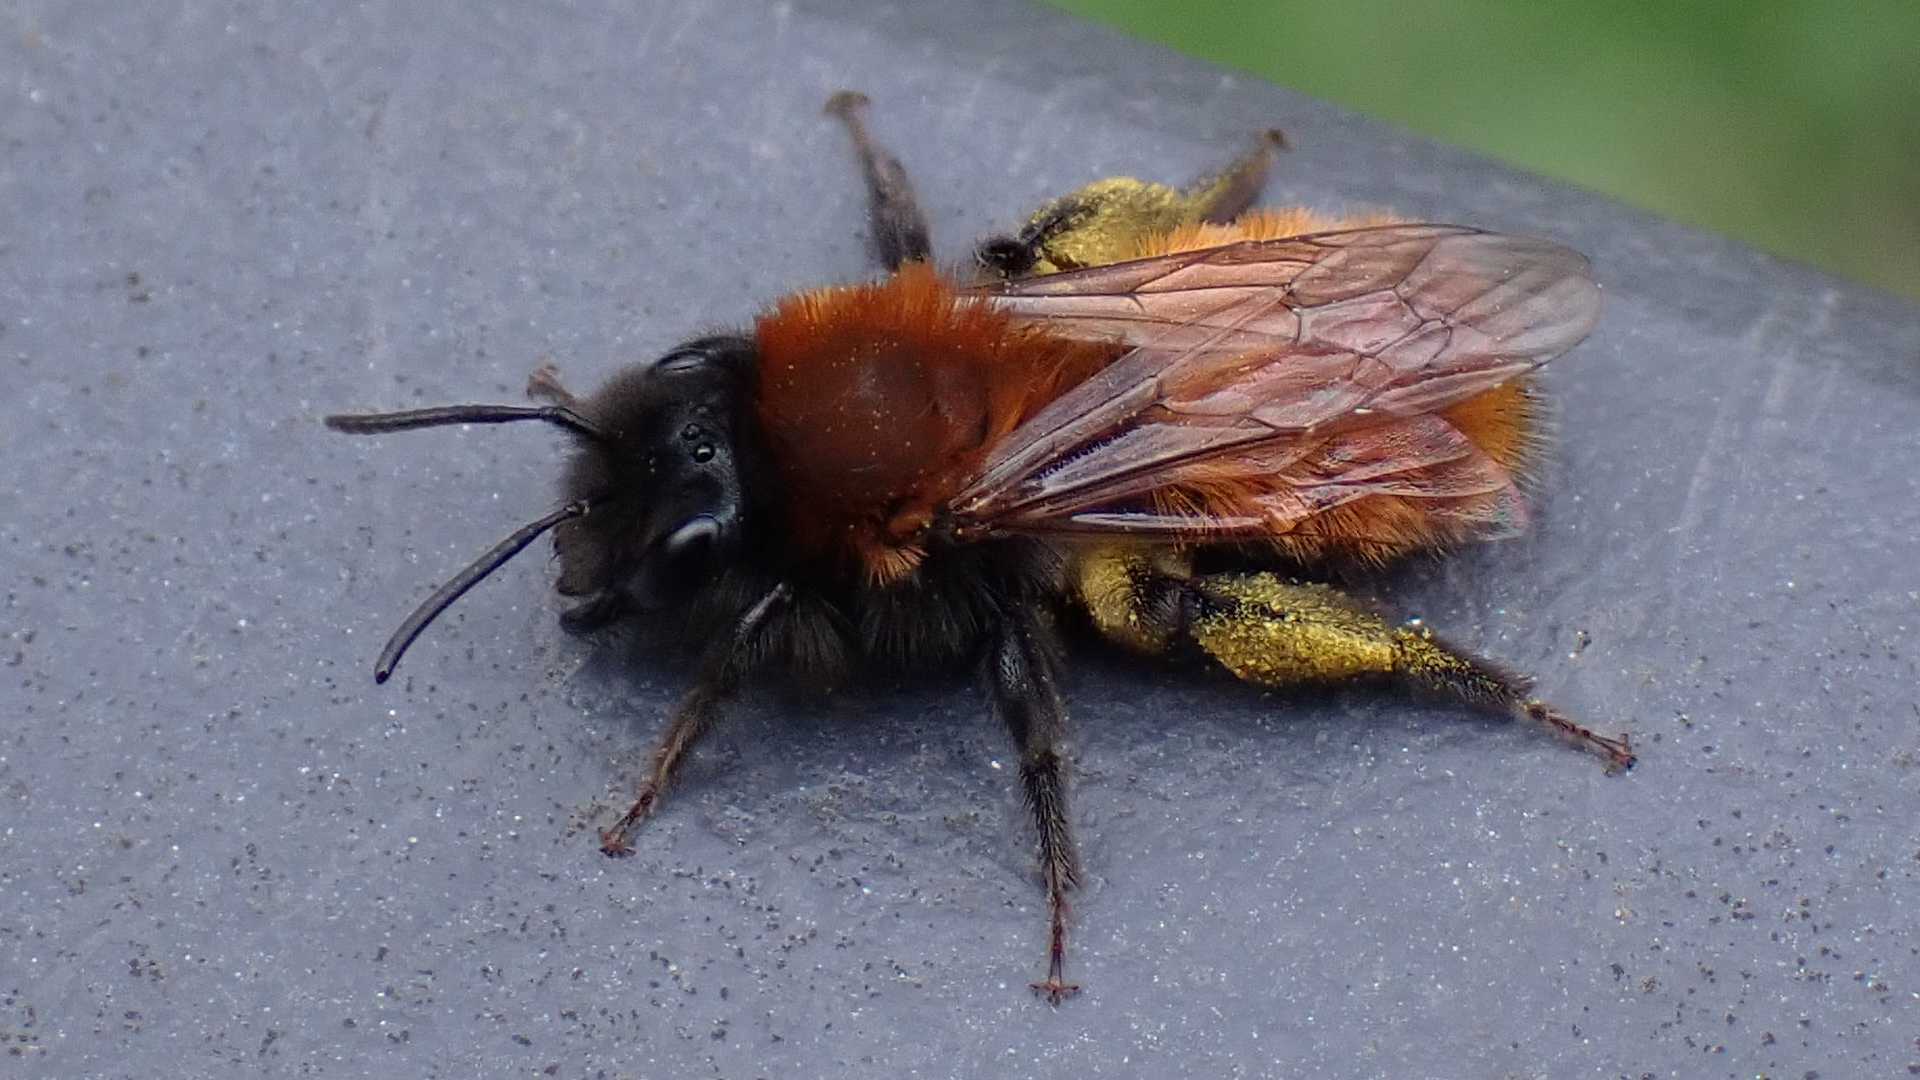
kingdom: Animalia
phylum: Arthropoda
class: Insecta
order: Hymenoptera
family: Andrenidae
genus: Andrena
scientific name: Andrena fulva
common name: Tawny mining bee
